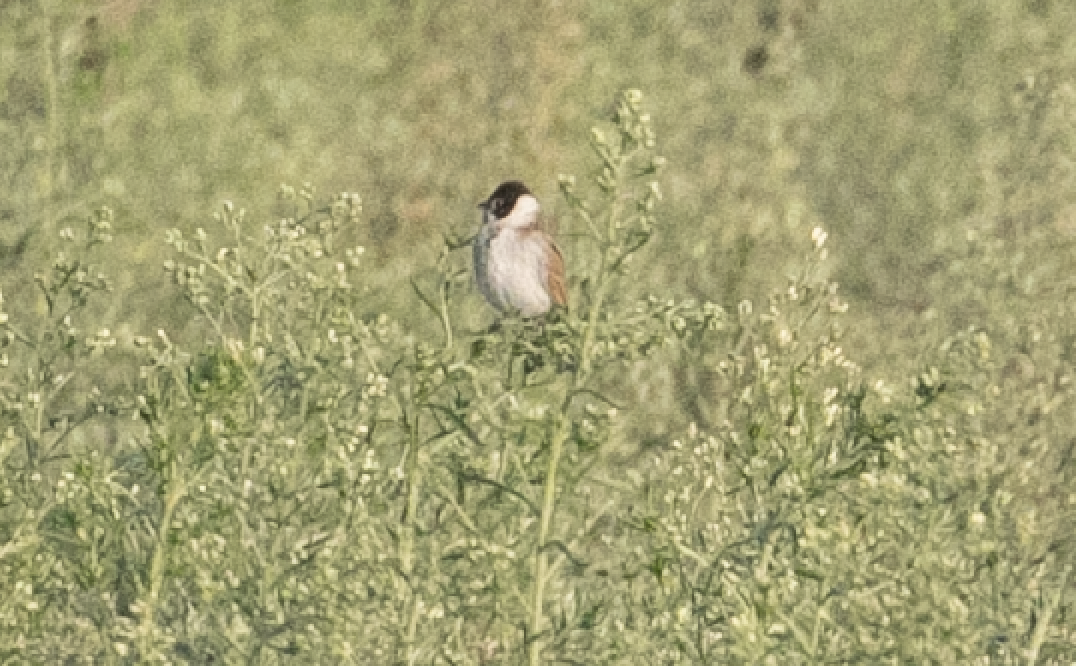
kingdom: Animalia
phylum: Chordata
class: Aves
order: Passeriformes
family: Emberizidae
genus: Emberiza
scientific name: Emberiza schoeniclus
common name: Reed bunting
